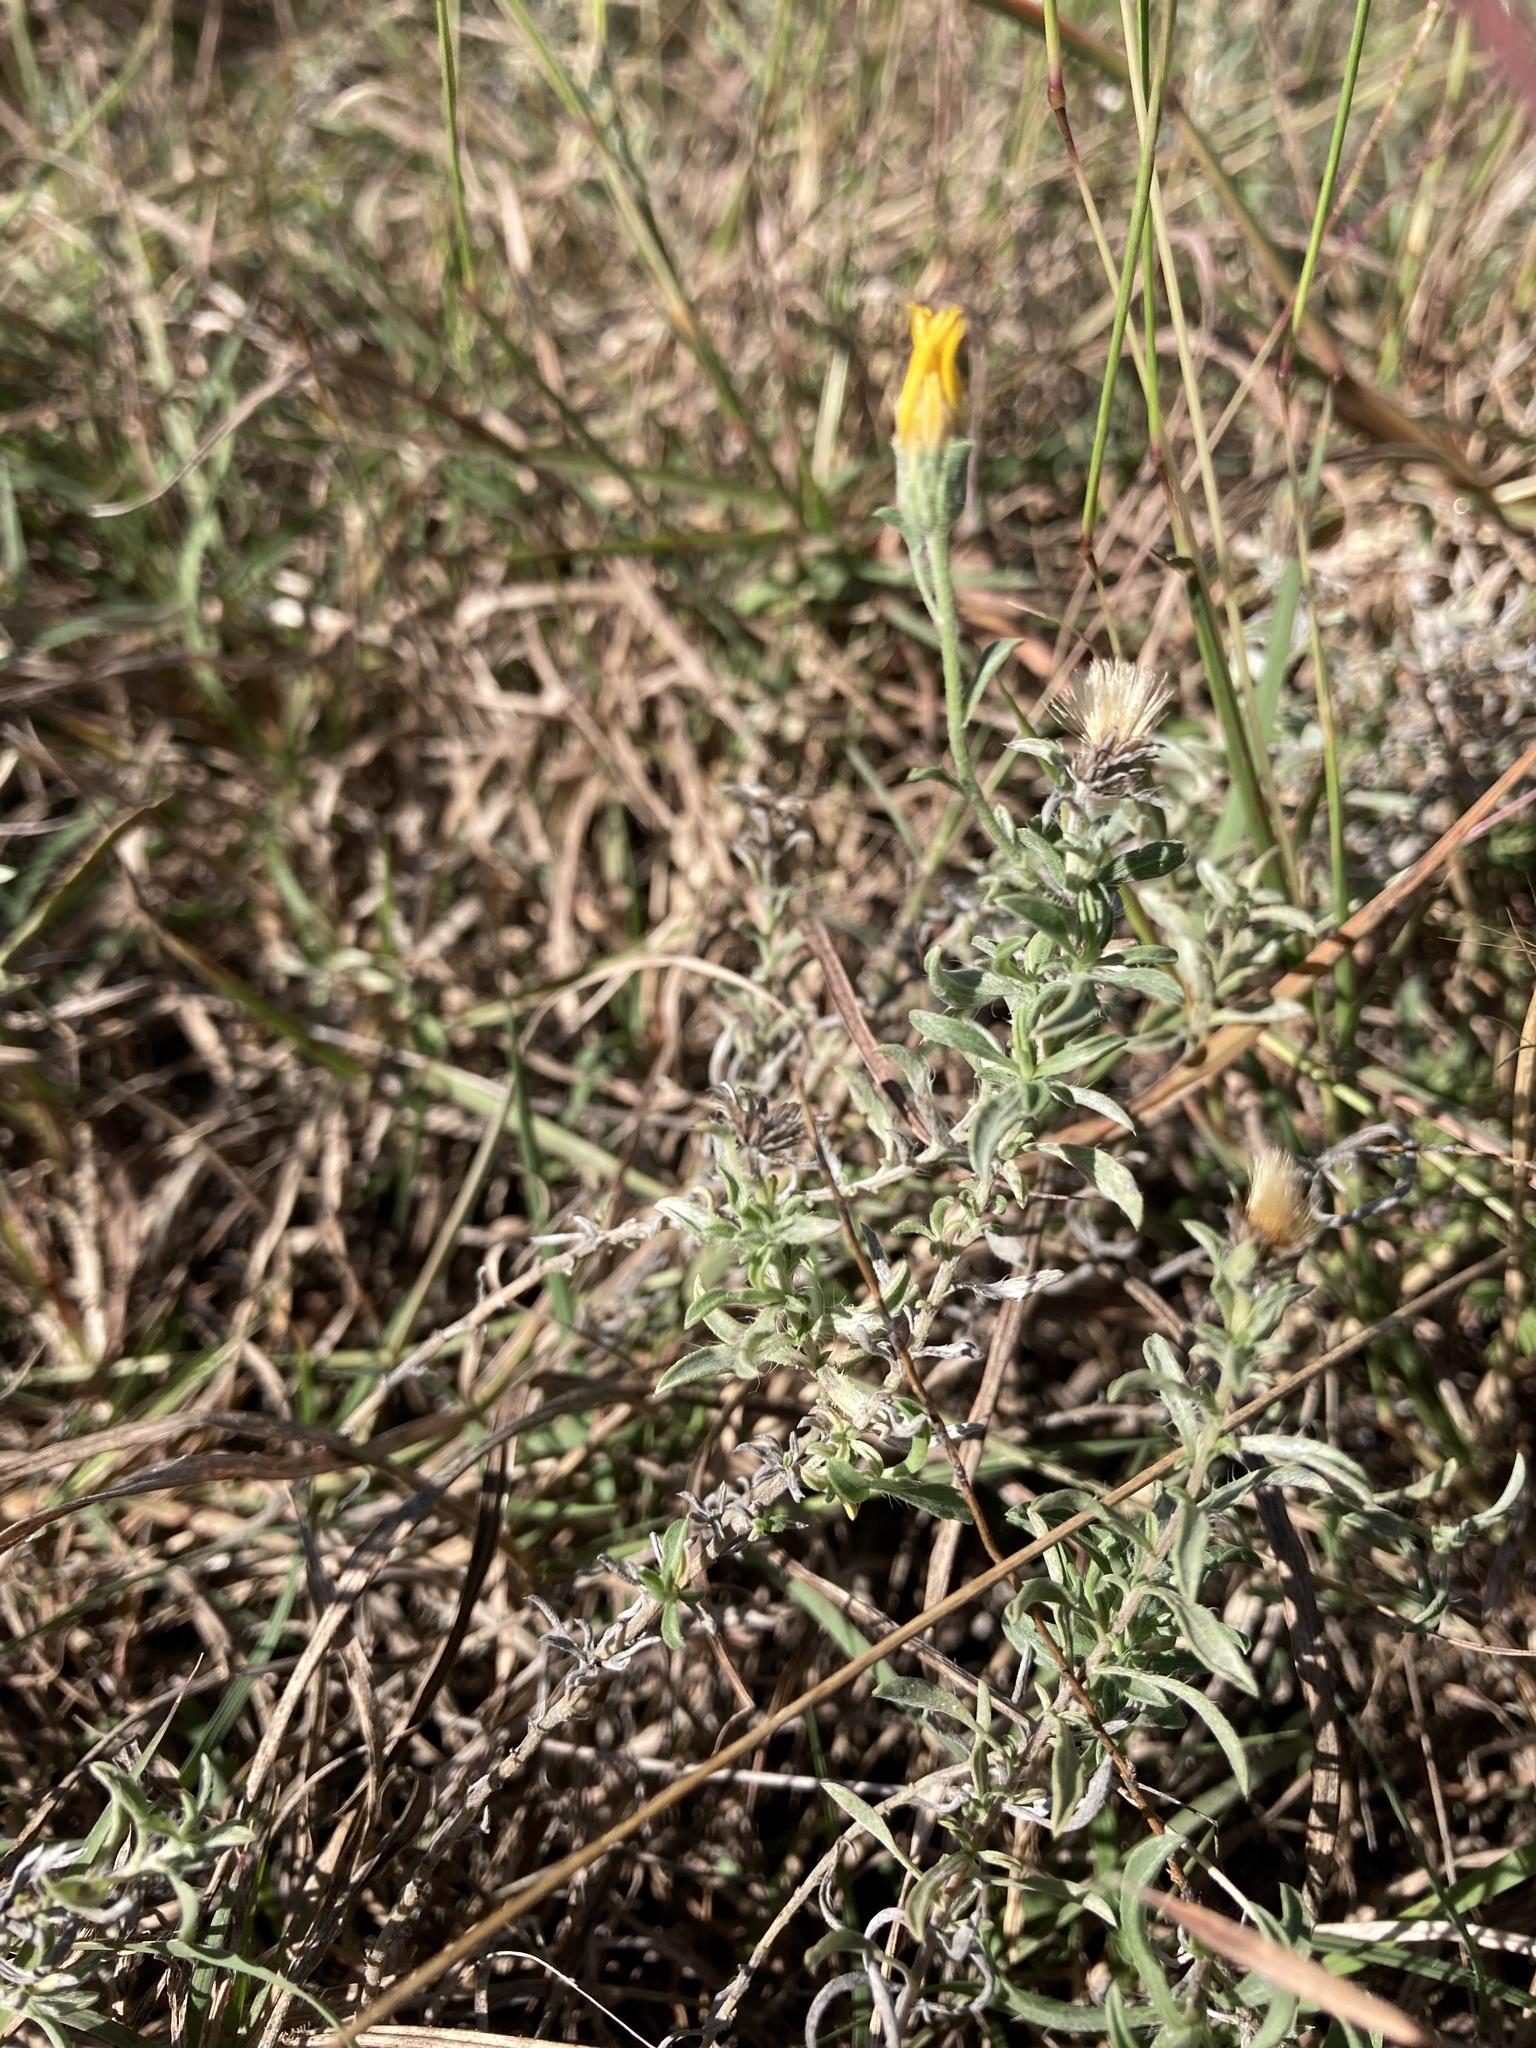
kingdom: Plantae
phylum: Tracheophyta
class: Magnoliopsida
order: Asterales
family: Asteraceae
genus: Heterotheca
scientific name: Heterotheca canescens
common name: Hoary golden-aster
